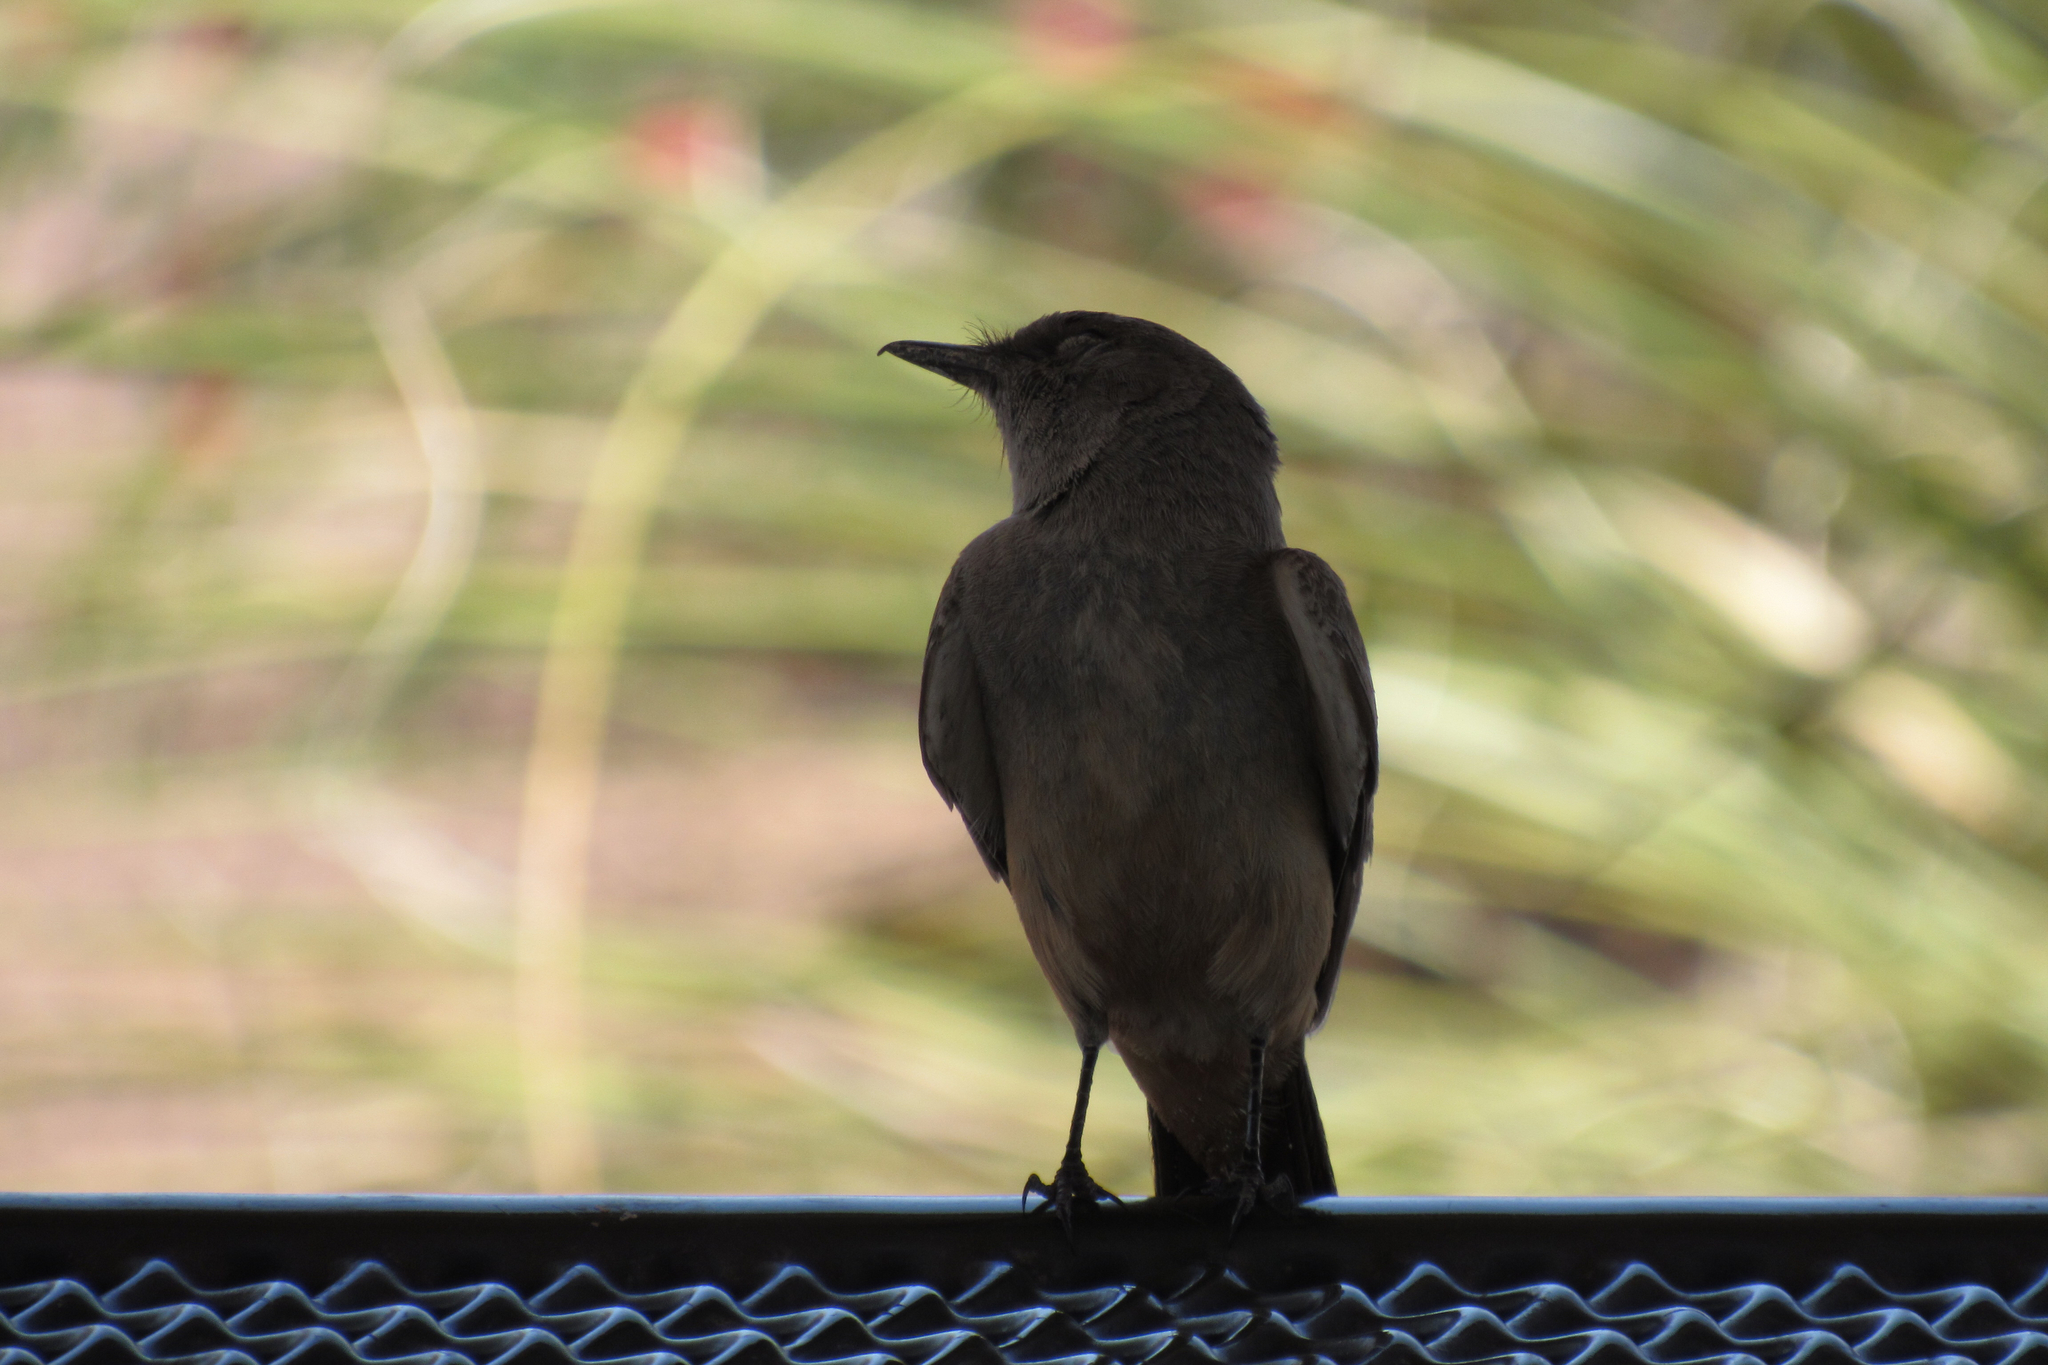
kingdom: Animalia
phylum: Chordata
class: Aves
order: Passeriformes
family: Tyrannidae
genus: Sayornis
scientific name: Sayornis saya
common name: Say's phoebe
